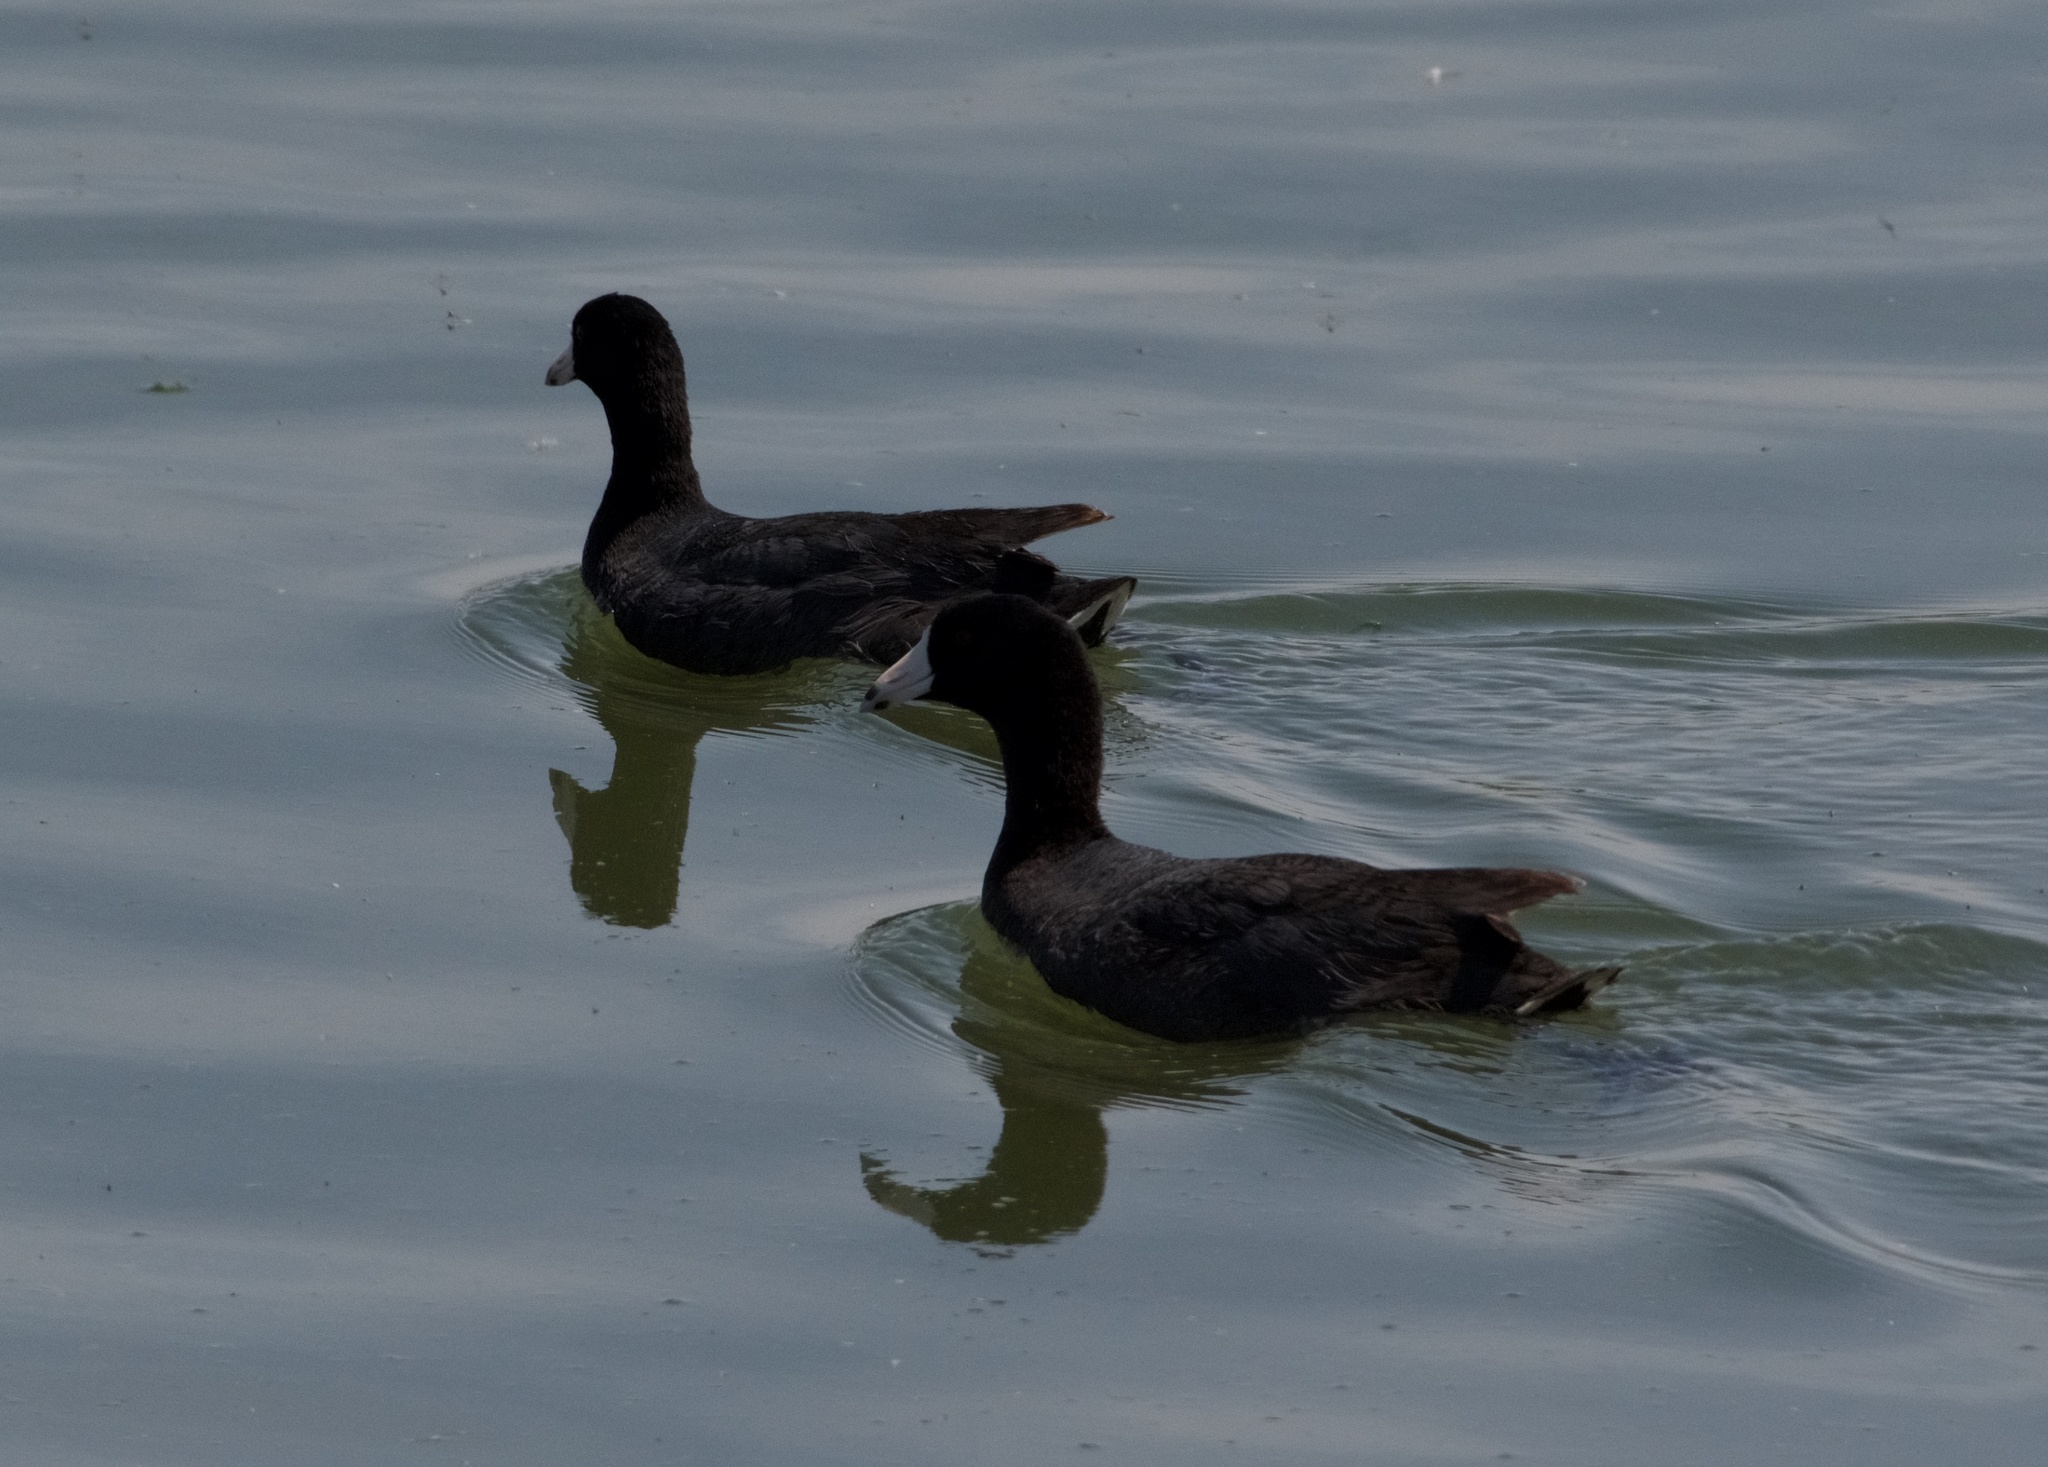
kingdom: Animalia
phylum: Chordata
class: Aves
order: Gruiformes
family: Rallidae
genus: Fulica
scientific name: Fulica americana
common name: American coot
